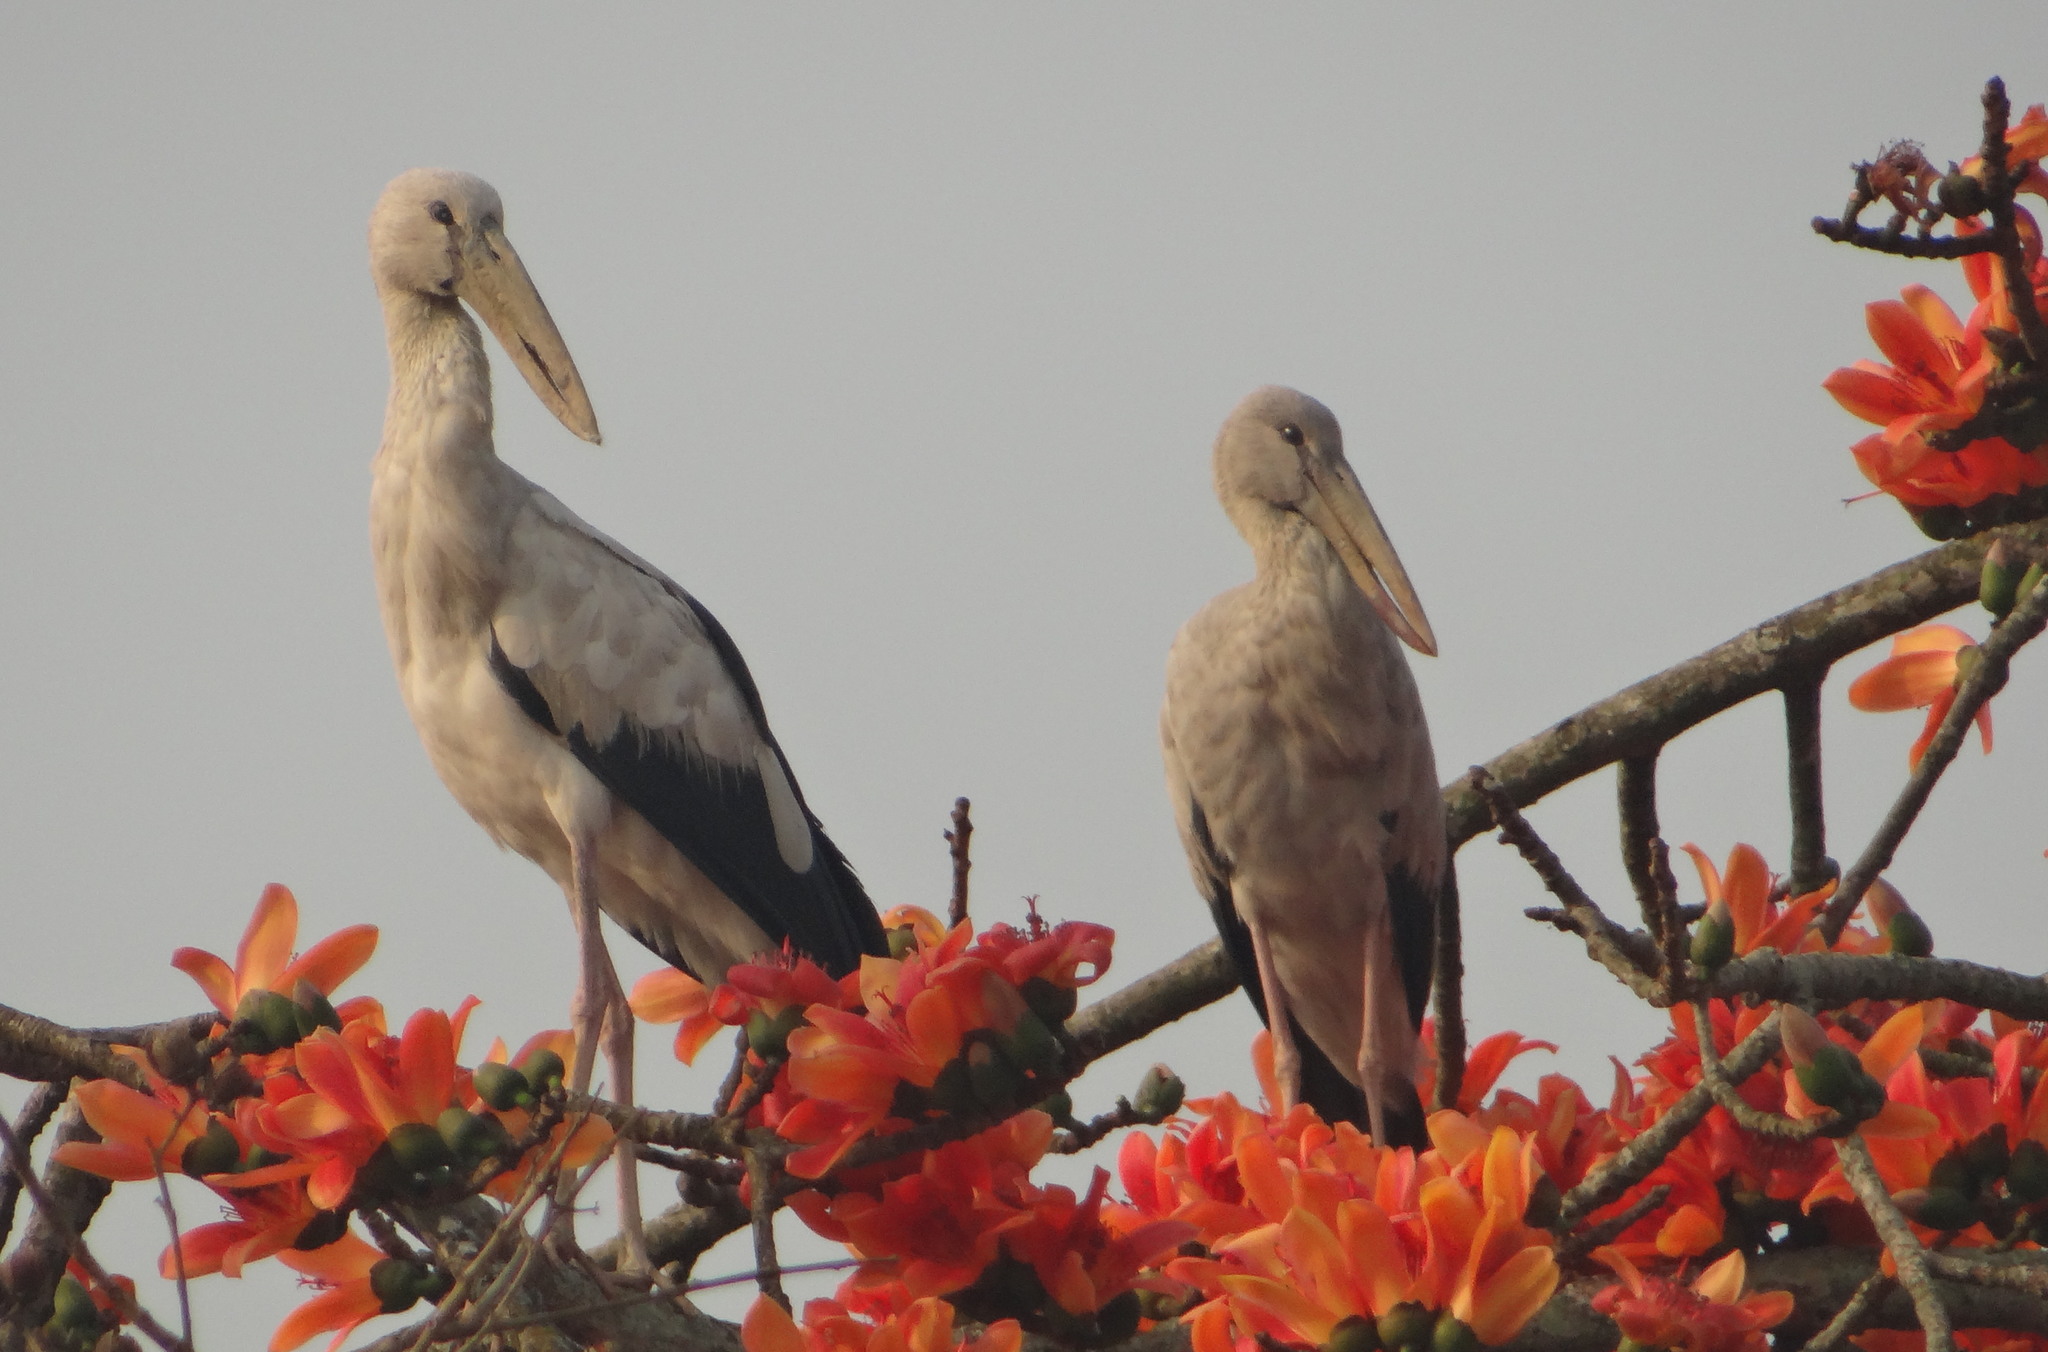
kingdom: Animalia
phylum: Chordata
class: Aves
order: Ciconiiformes
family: Ciconiidae
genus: Anastomus
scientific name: Anastomus oscitans
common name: Asian openbill
